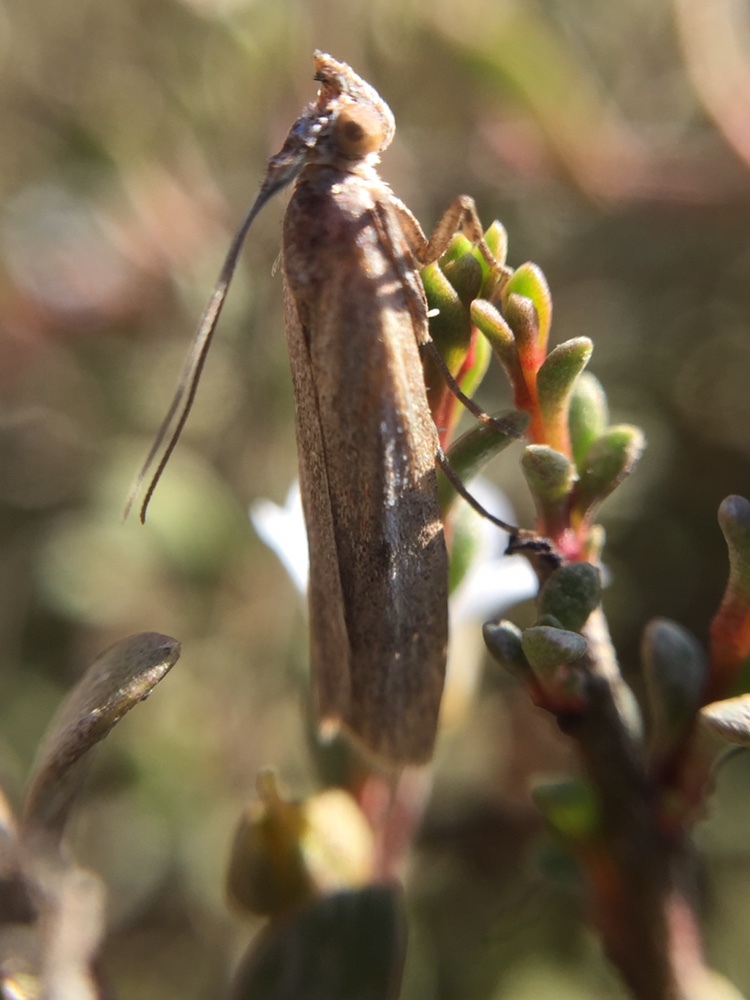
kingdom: Animalia
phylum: Arthropoda
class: Insecta
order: Lepidoptera
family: Pyralidae
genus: Vinicia
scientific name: Vinicia
